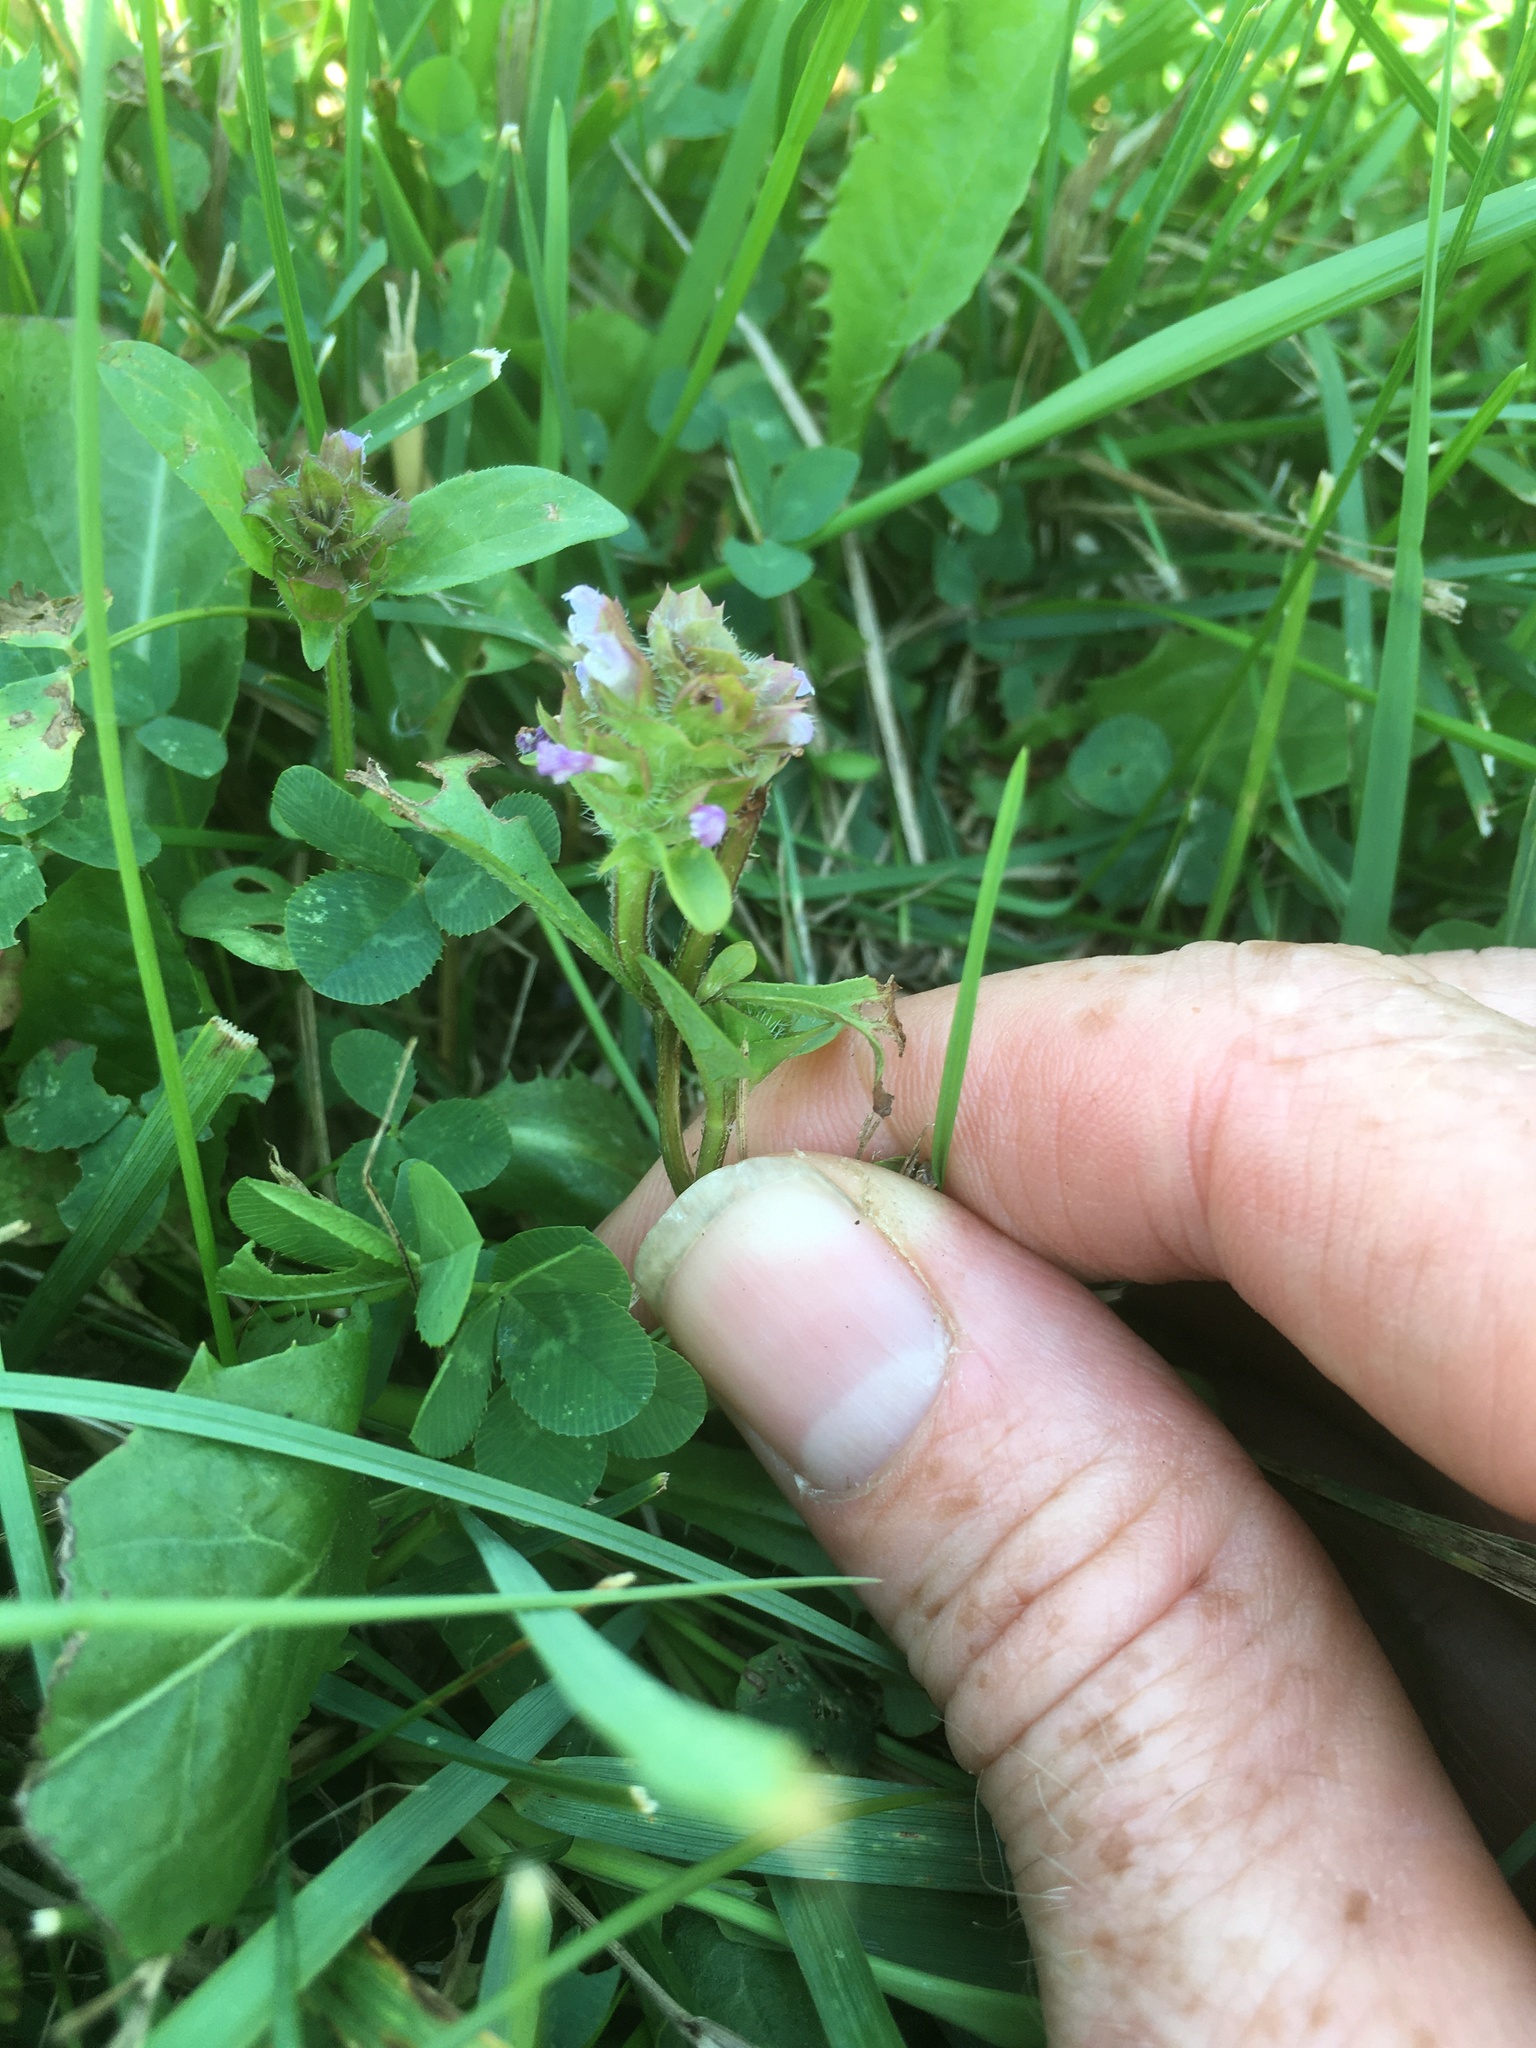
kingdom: Plantae
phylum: Tracheophyta
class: Magnoliopsida
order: Lamiales
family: Lamiaceae
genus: Prunella
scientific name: Prunella vulgaris
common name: Heal-all
